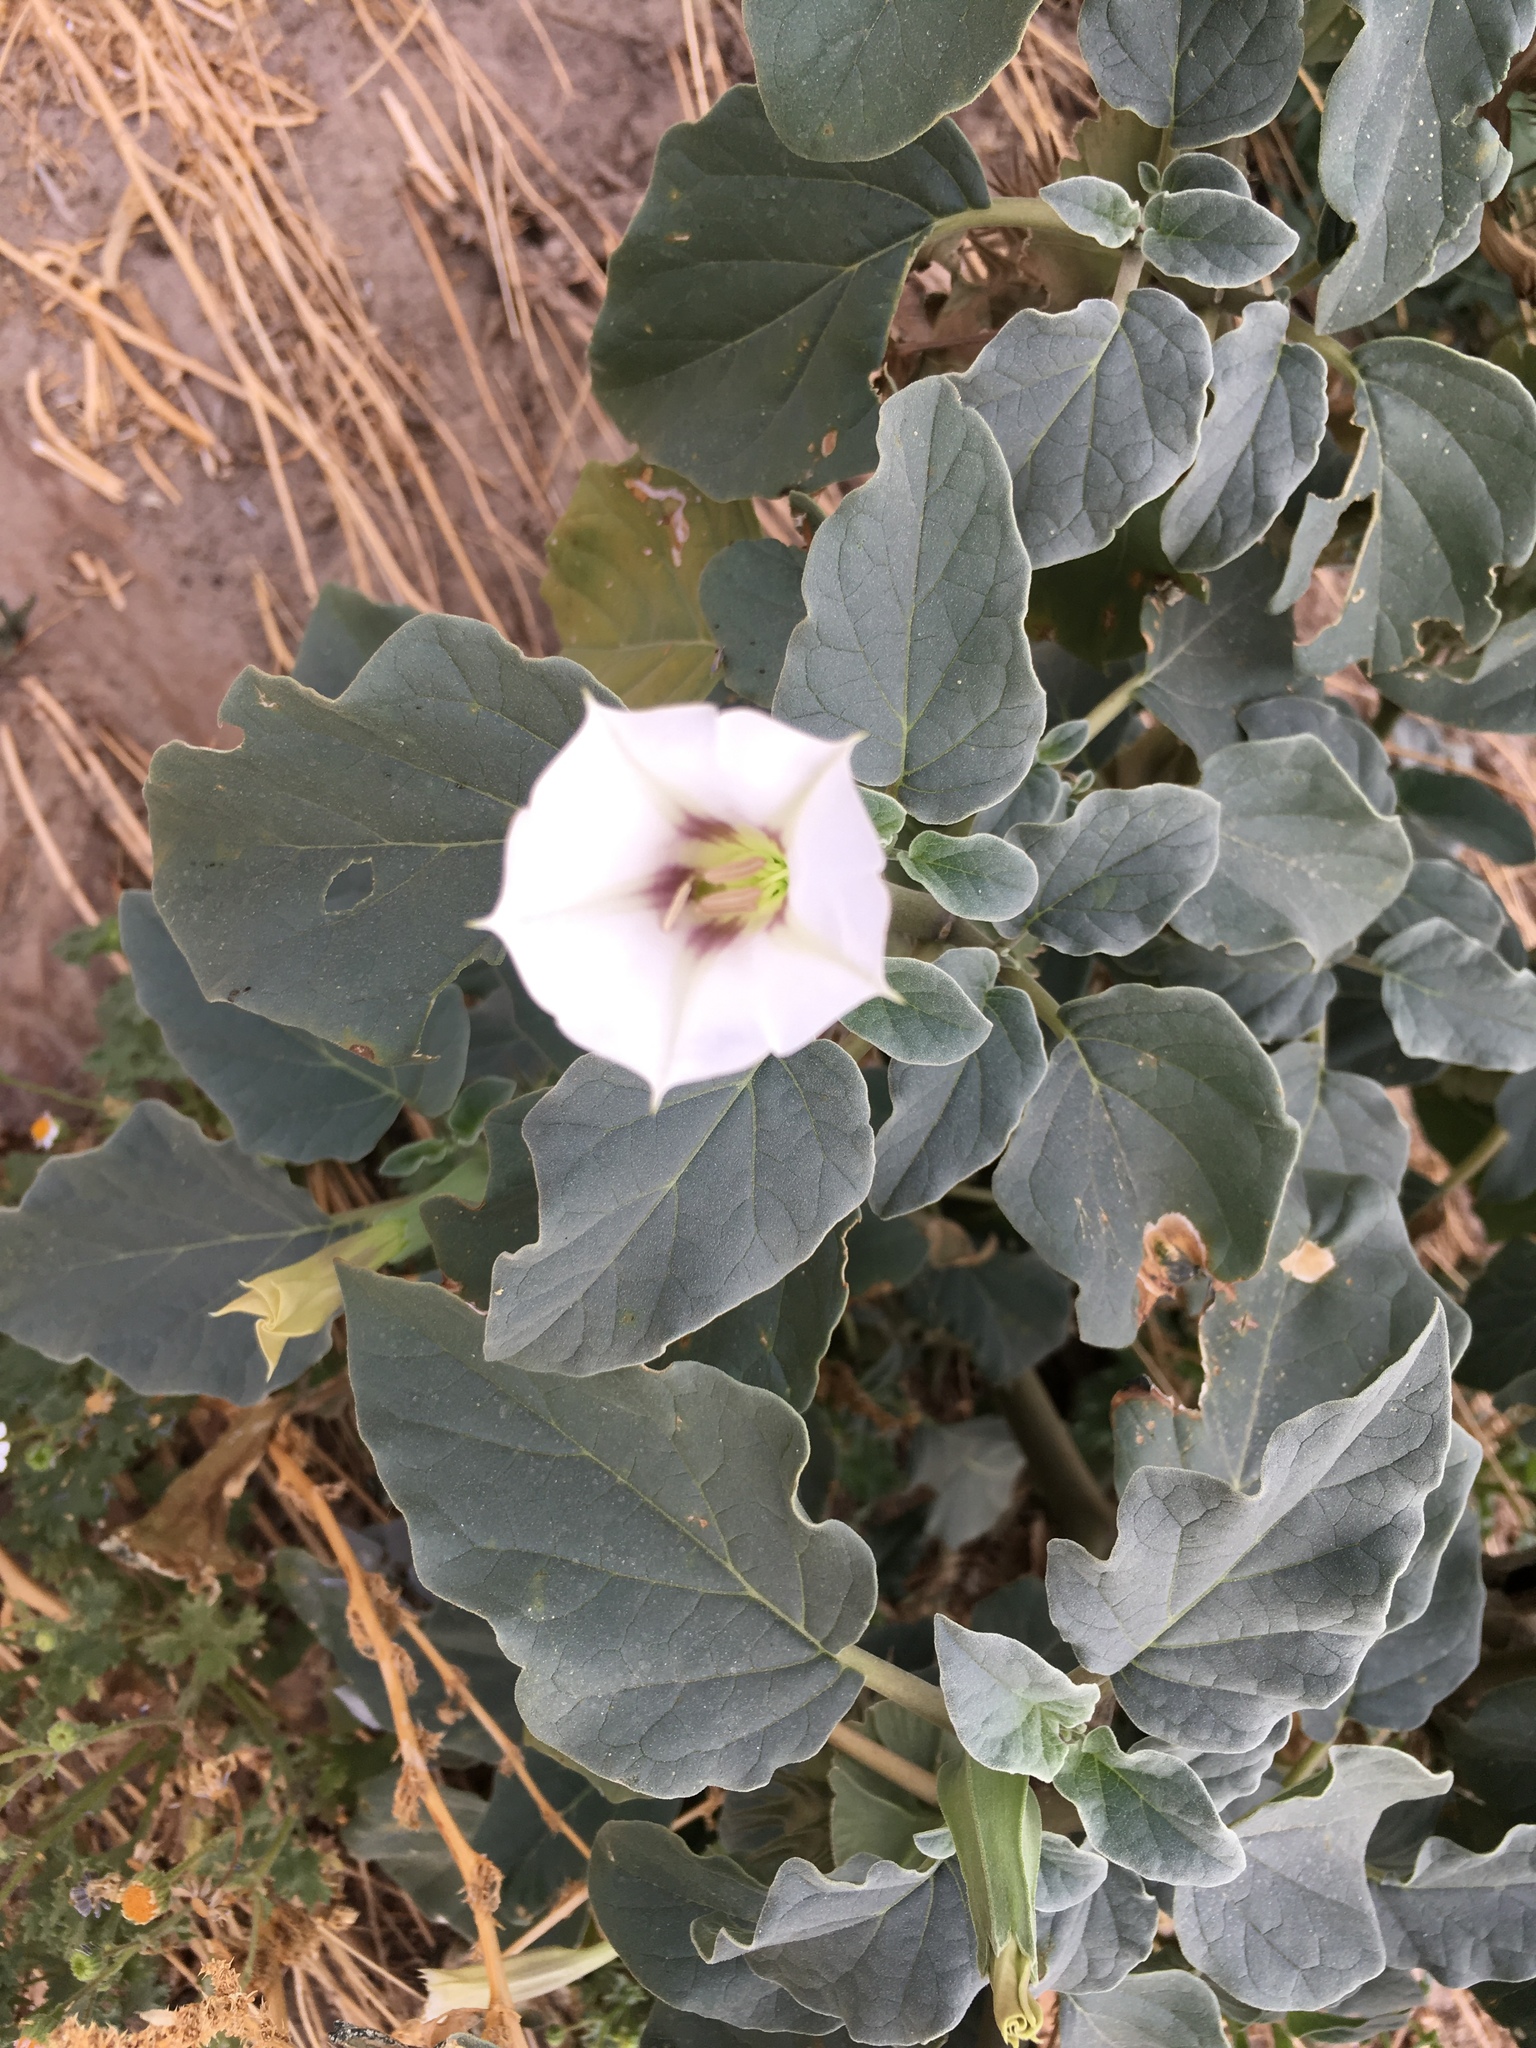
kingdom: Plantae
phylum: Tracheophyta
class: Magnoliopsida
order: Solanales
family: Solanaceae
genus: Datura
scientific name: Datura discolor
